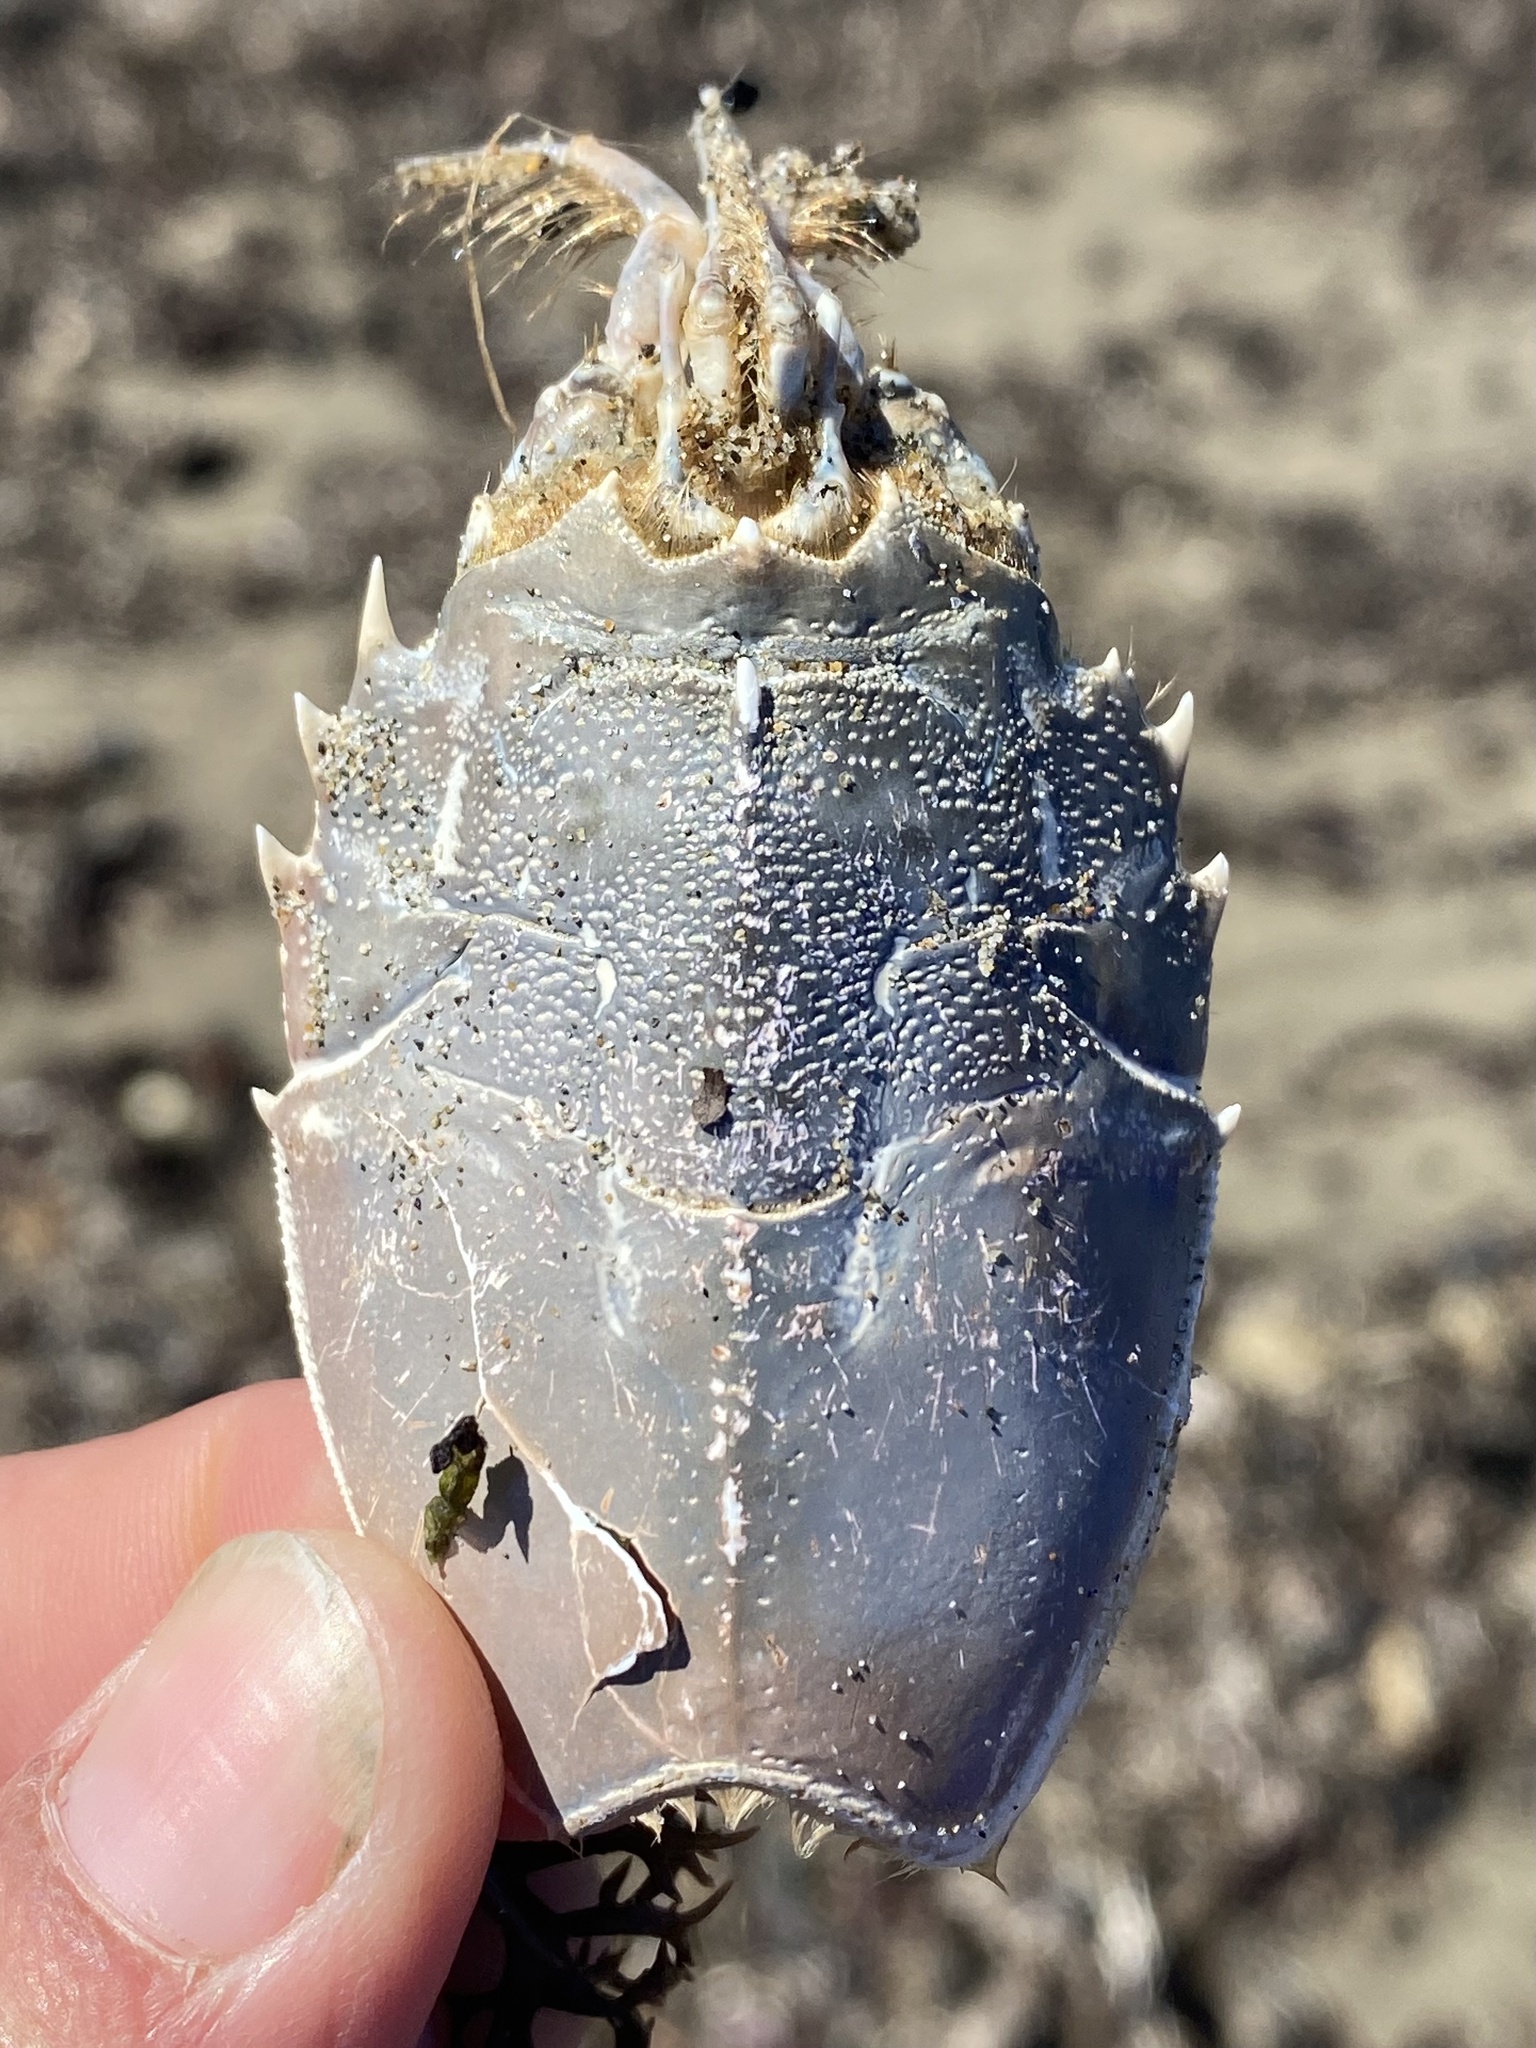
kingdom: Animalia
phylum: Arthropoda
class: Malacostraca
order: Decapoda
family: Blepharipodidae
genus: Blepharipoda
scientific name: Blepharipoda occidentalis
